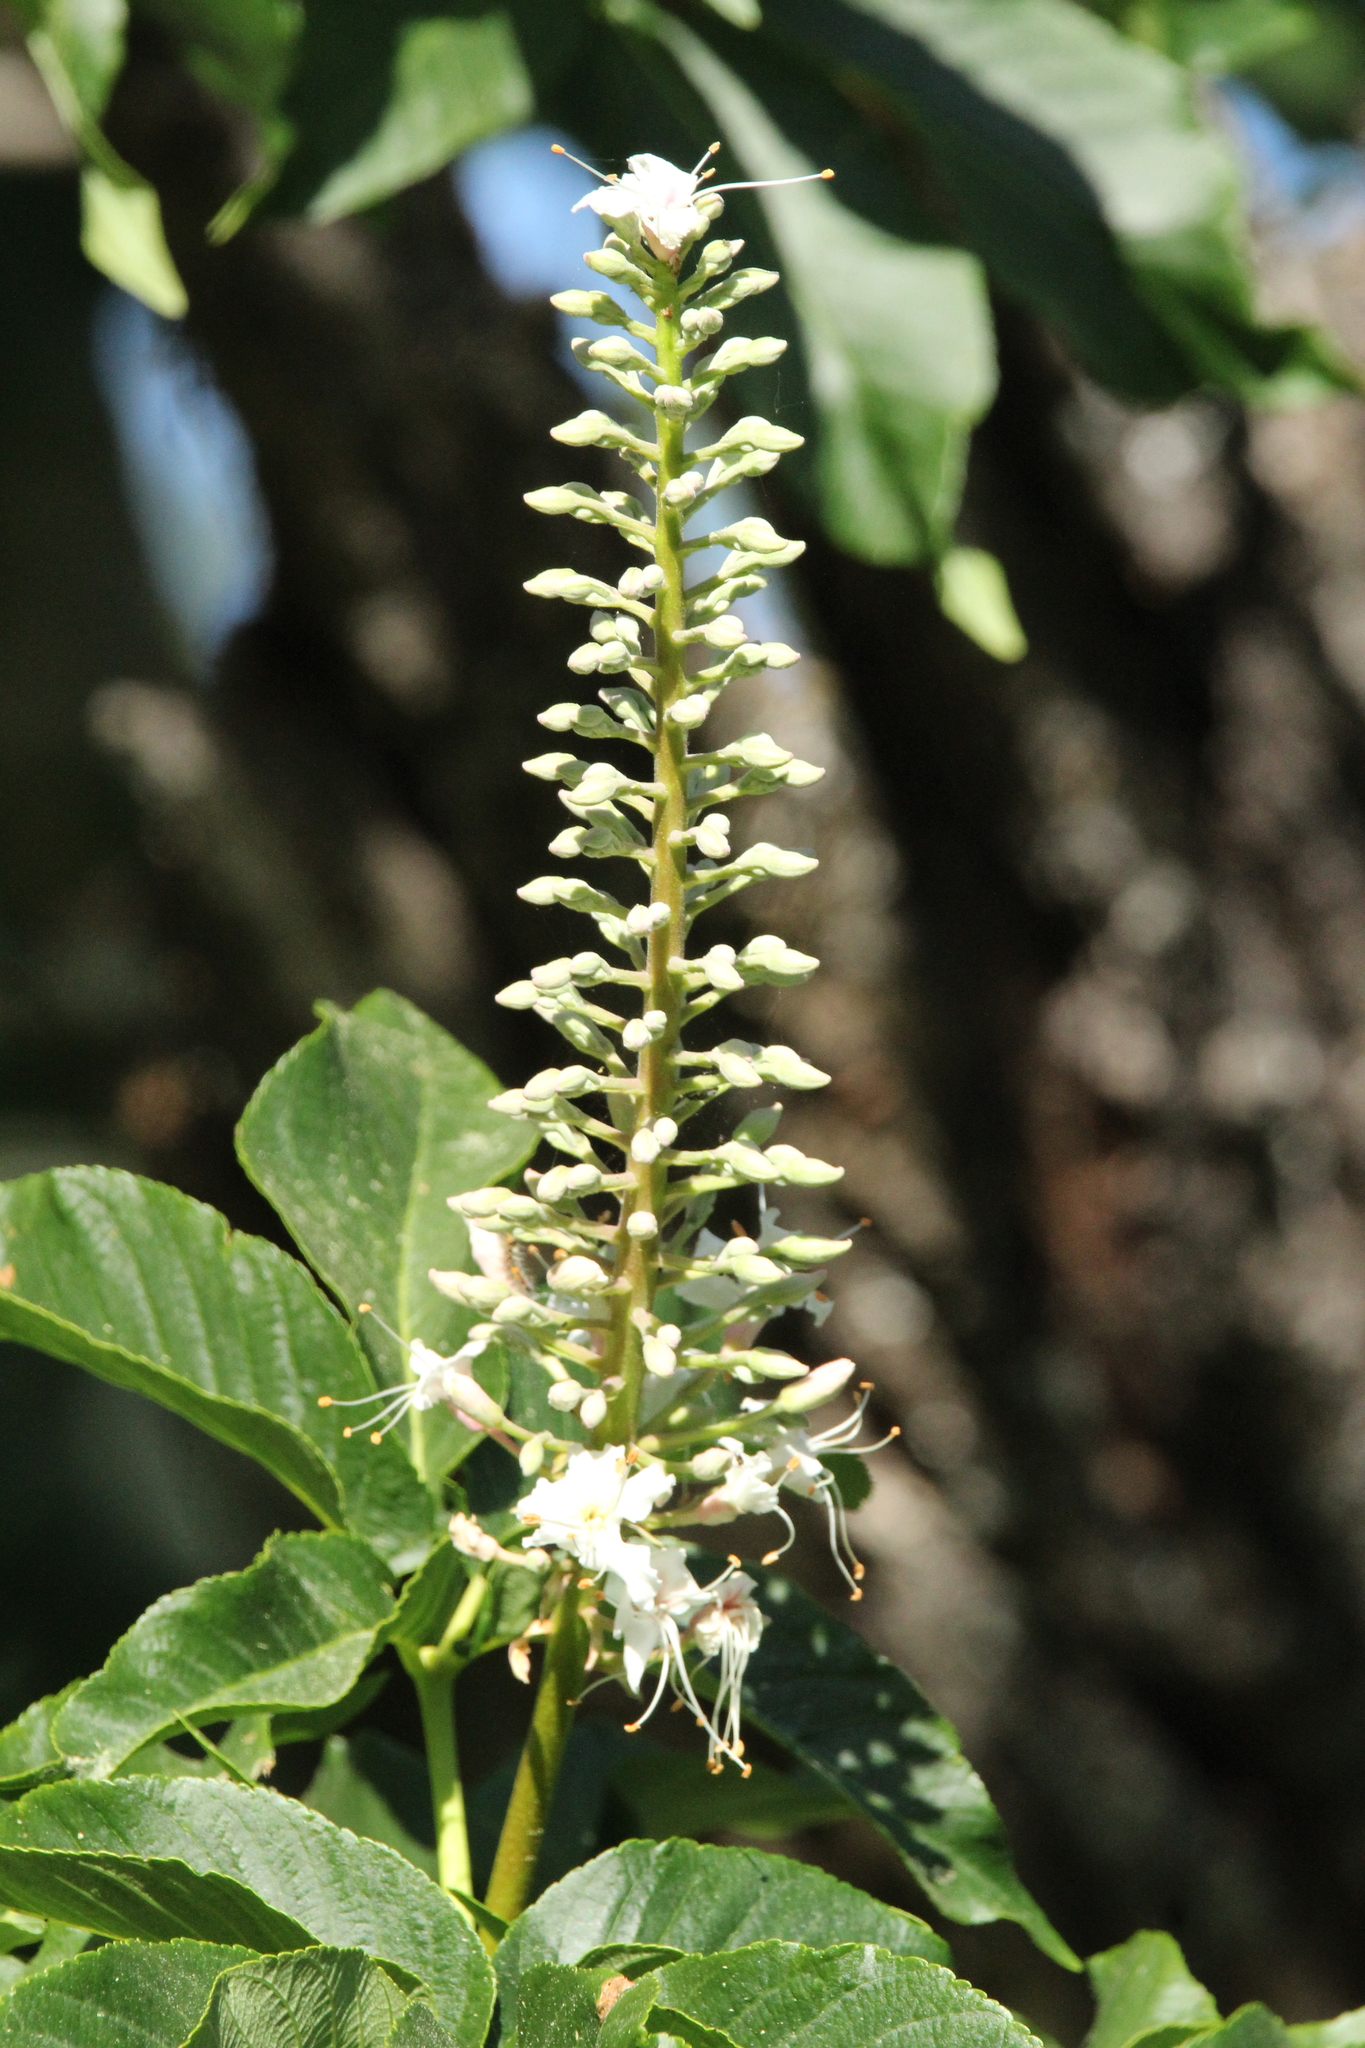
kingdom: Plantae
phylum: Tracheophyta
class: Magnoliopsida
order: Sapindales
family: Sapindaceae
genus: Aesculus
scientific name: Aesculus californica
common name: California buckeye
